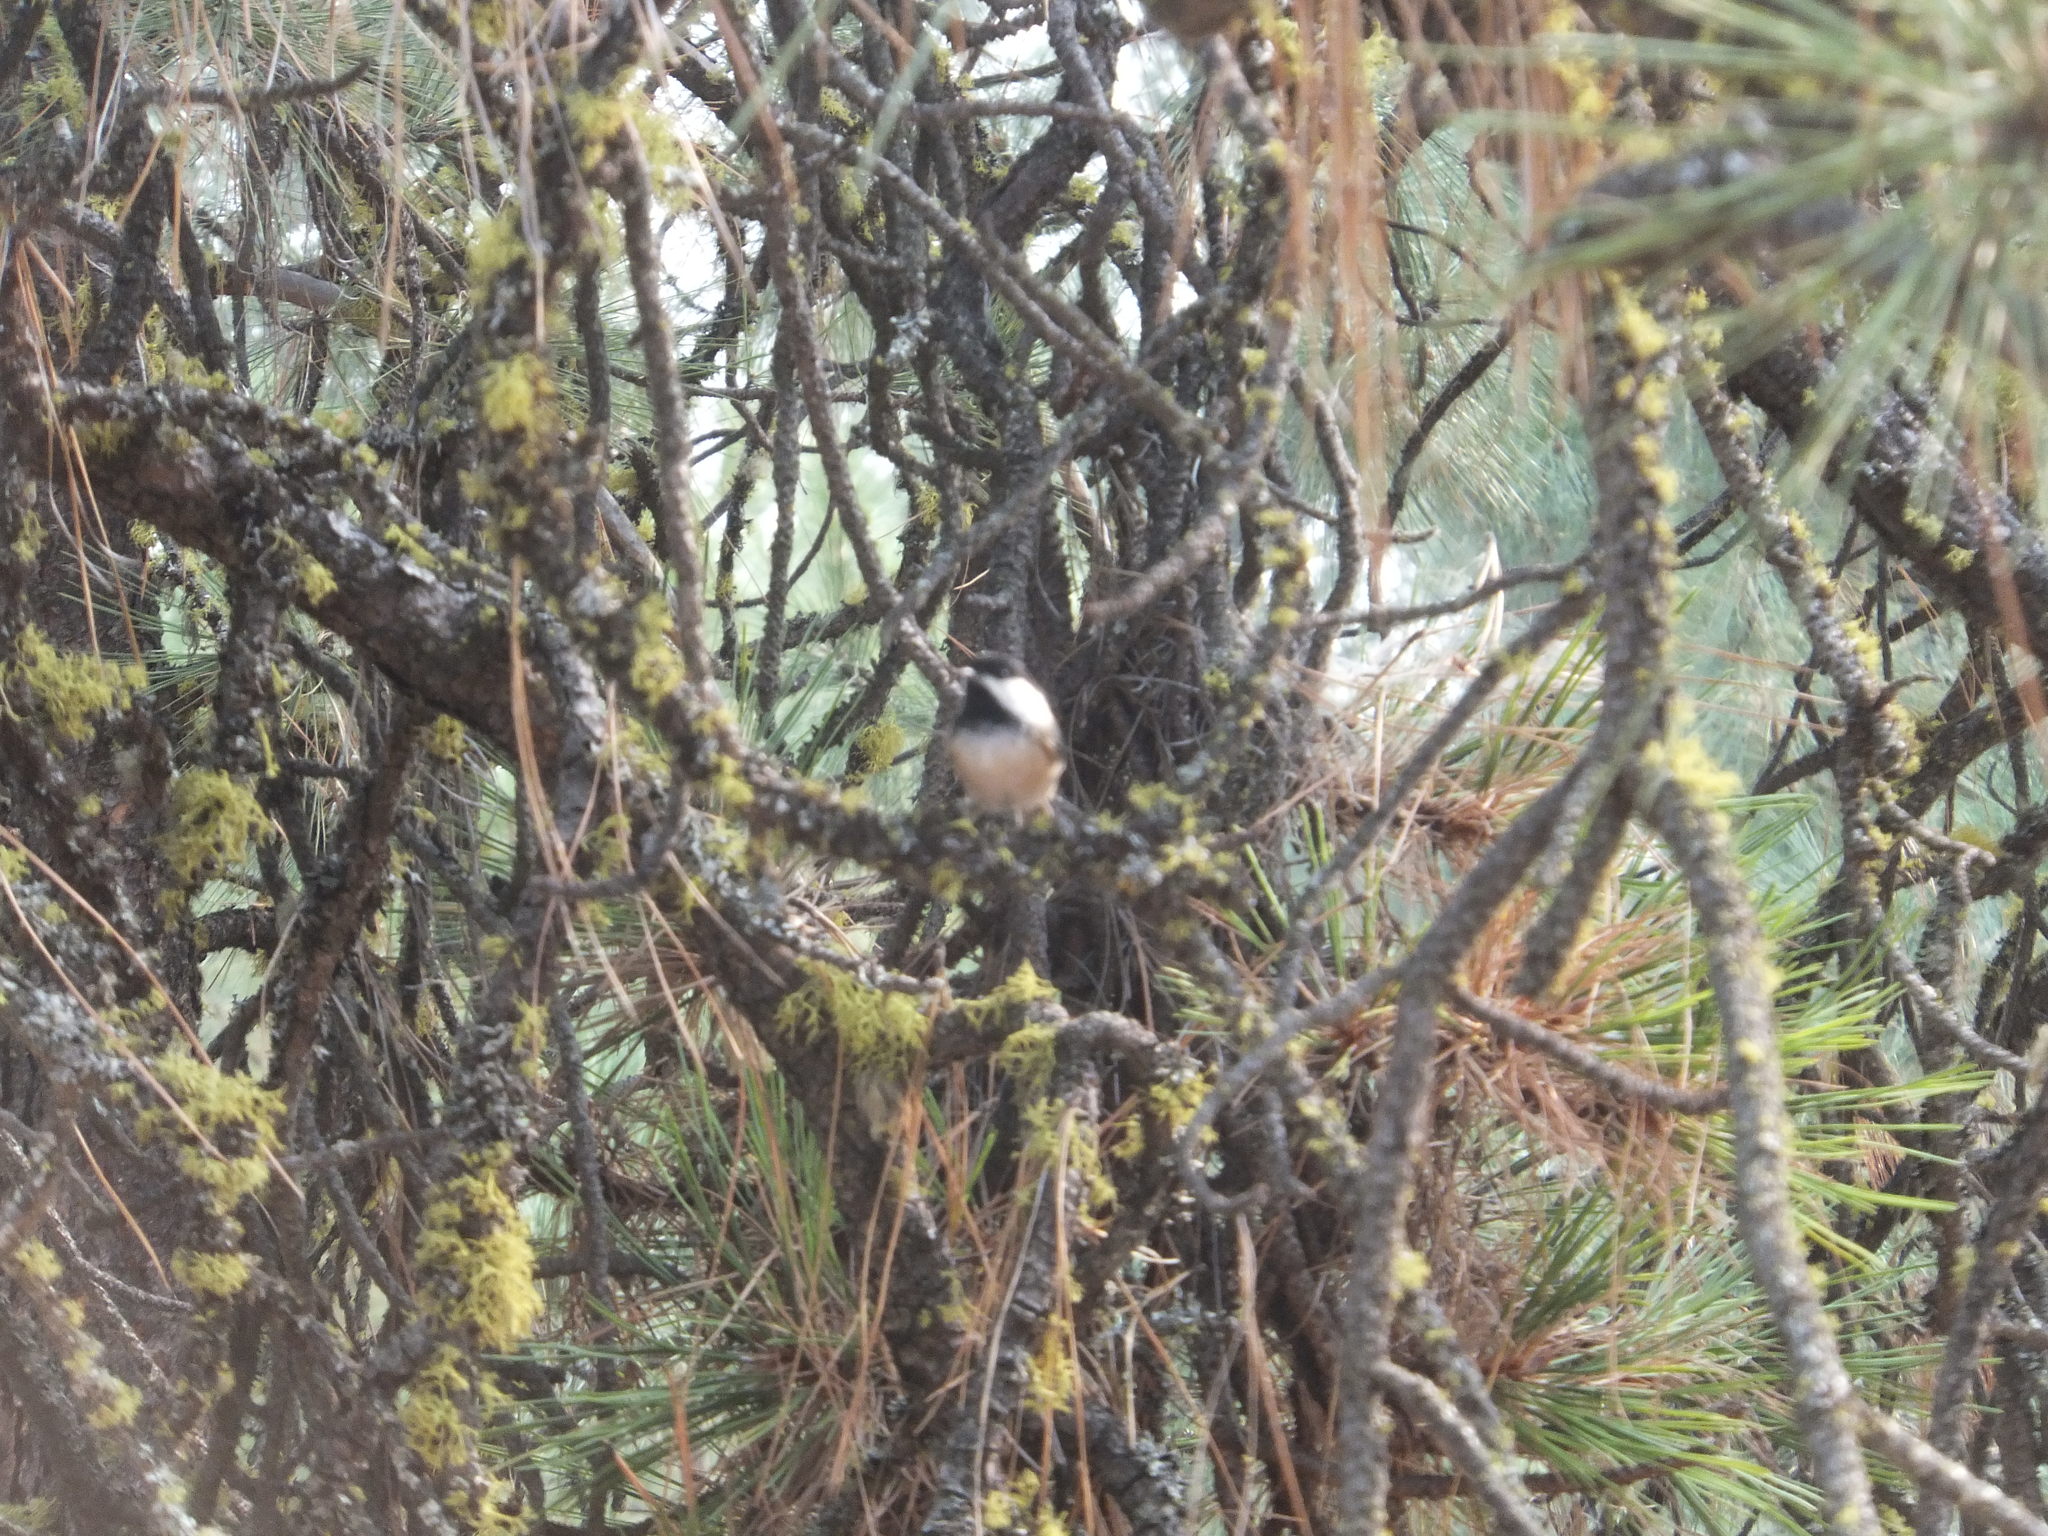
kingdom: Animalia
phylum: Chordata
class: Aves
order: Passeriformes
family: Paridae
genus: Poecile
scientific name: Poecile atricapillus
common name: Black-capped chickadee
